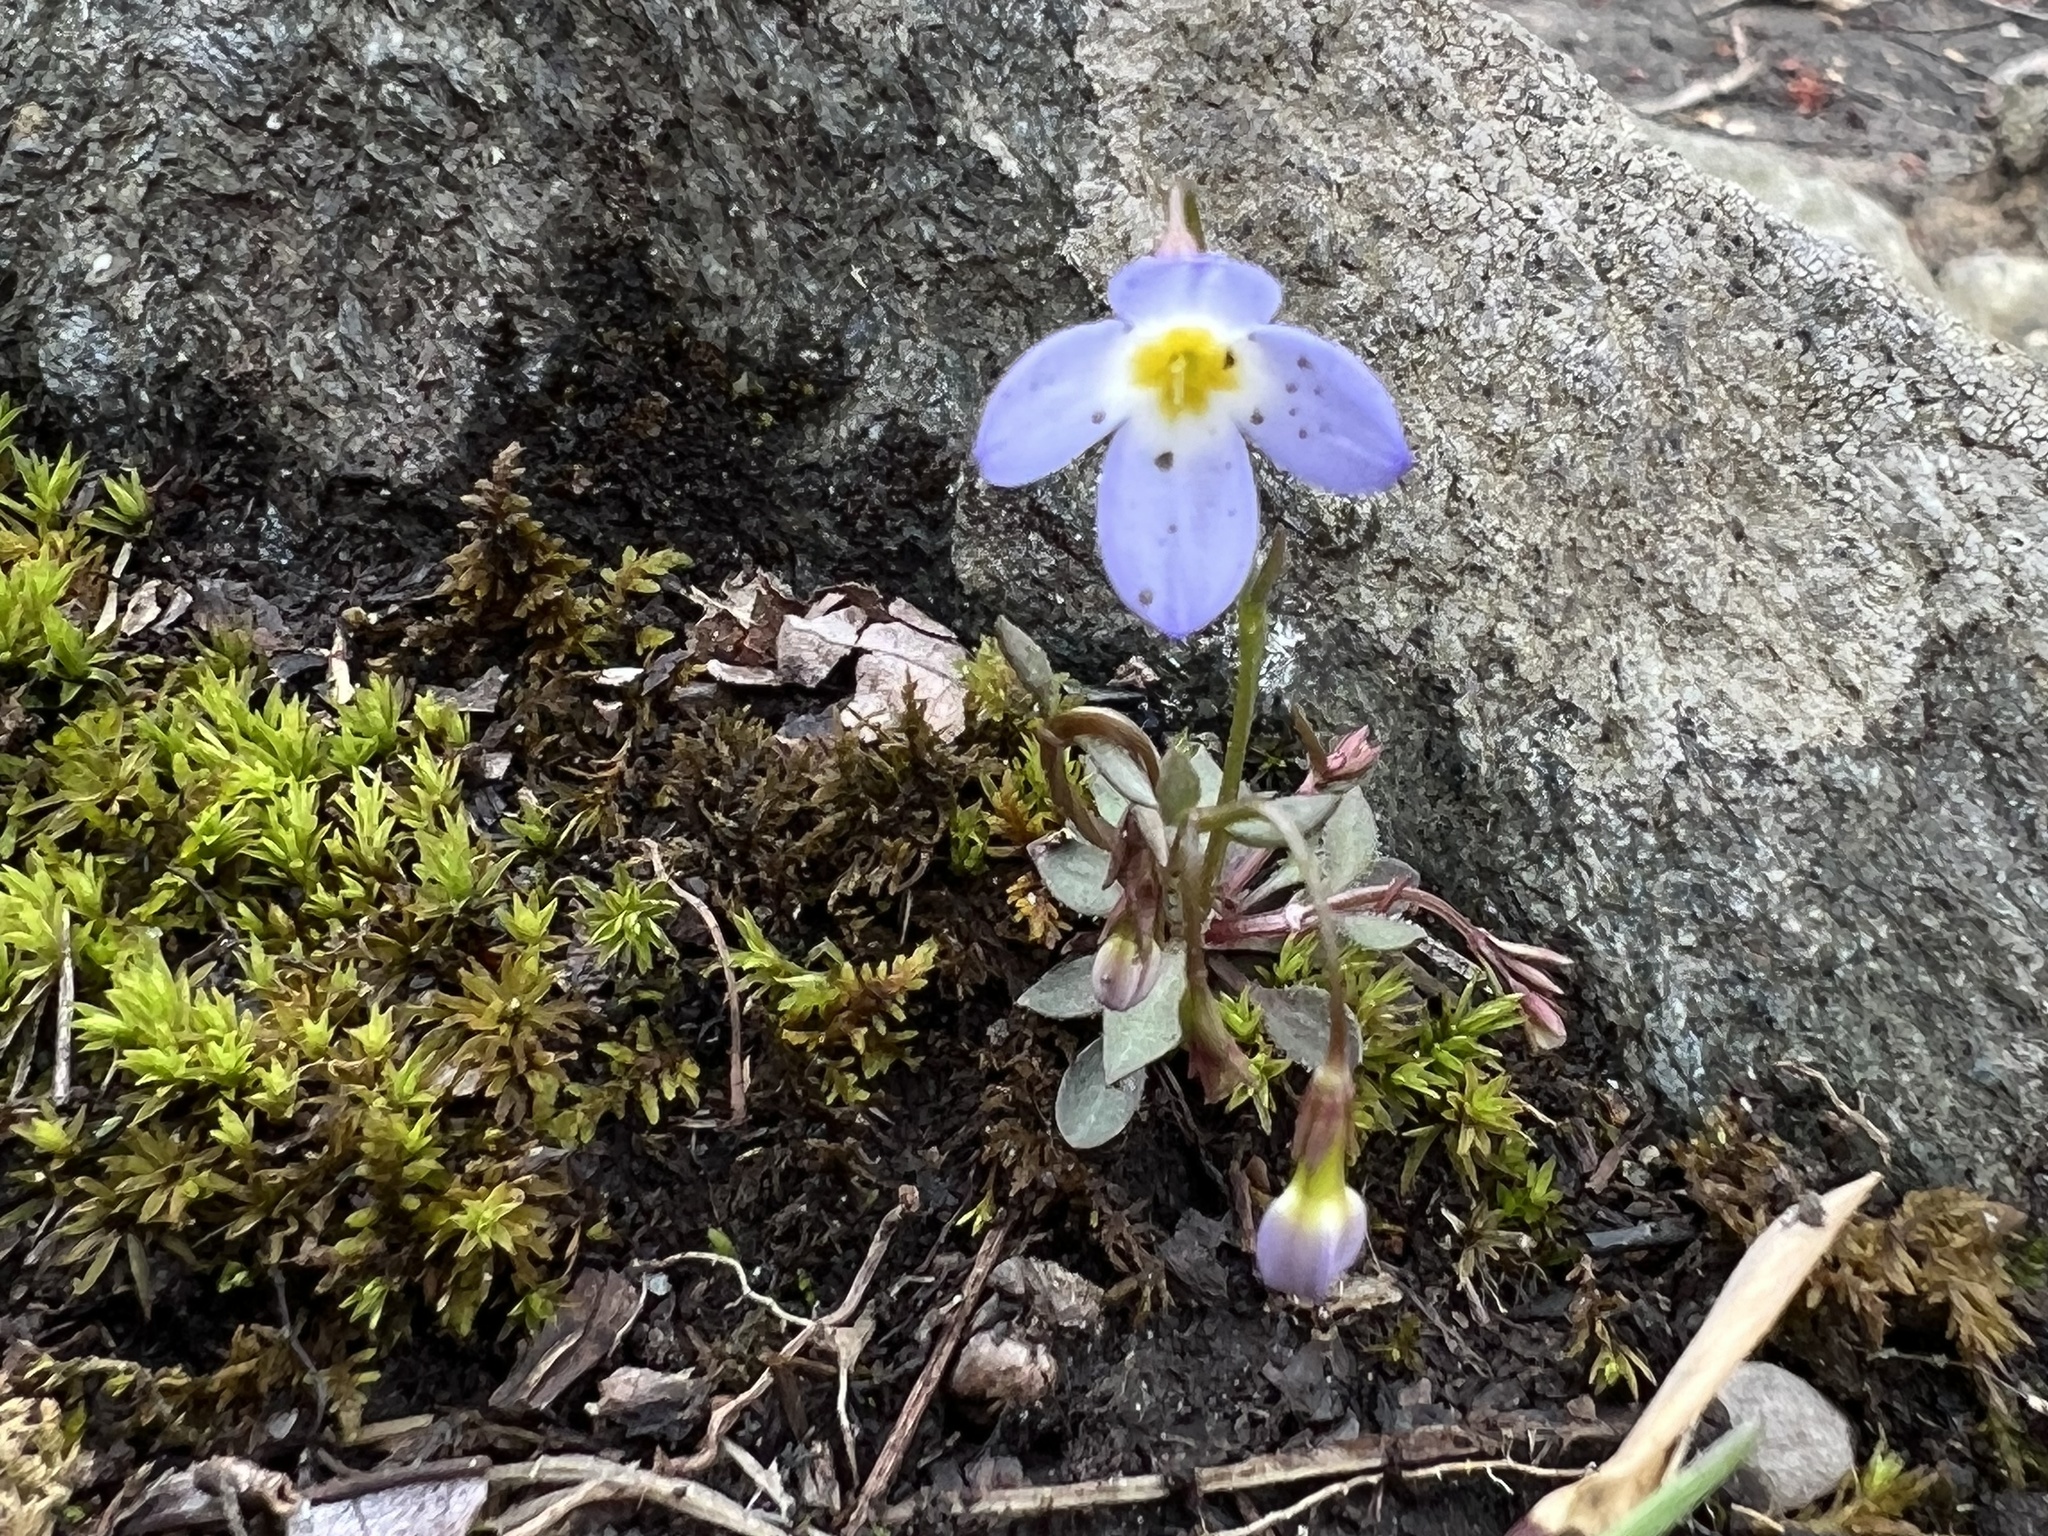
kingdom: Plantae
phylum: Tracheophyta
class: Magnoliopsida
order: Gentianales
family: Rubiaceae
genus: Houstonia
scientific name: Houstonia caerulea
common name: Bluets
